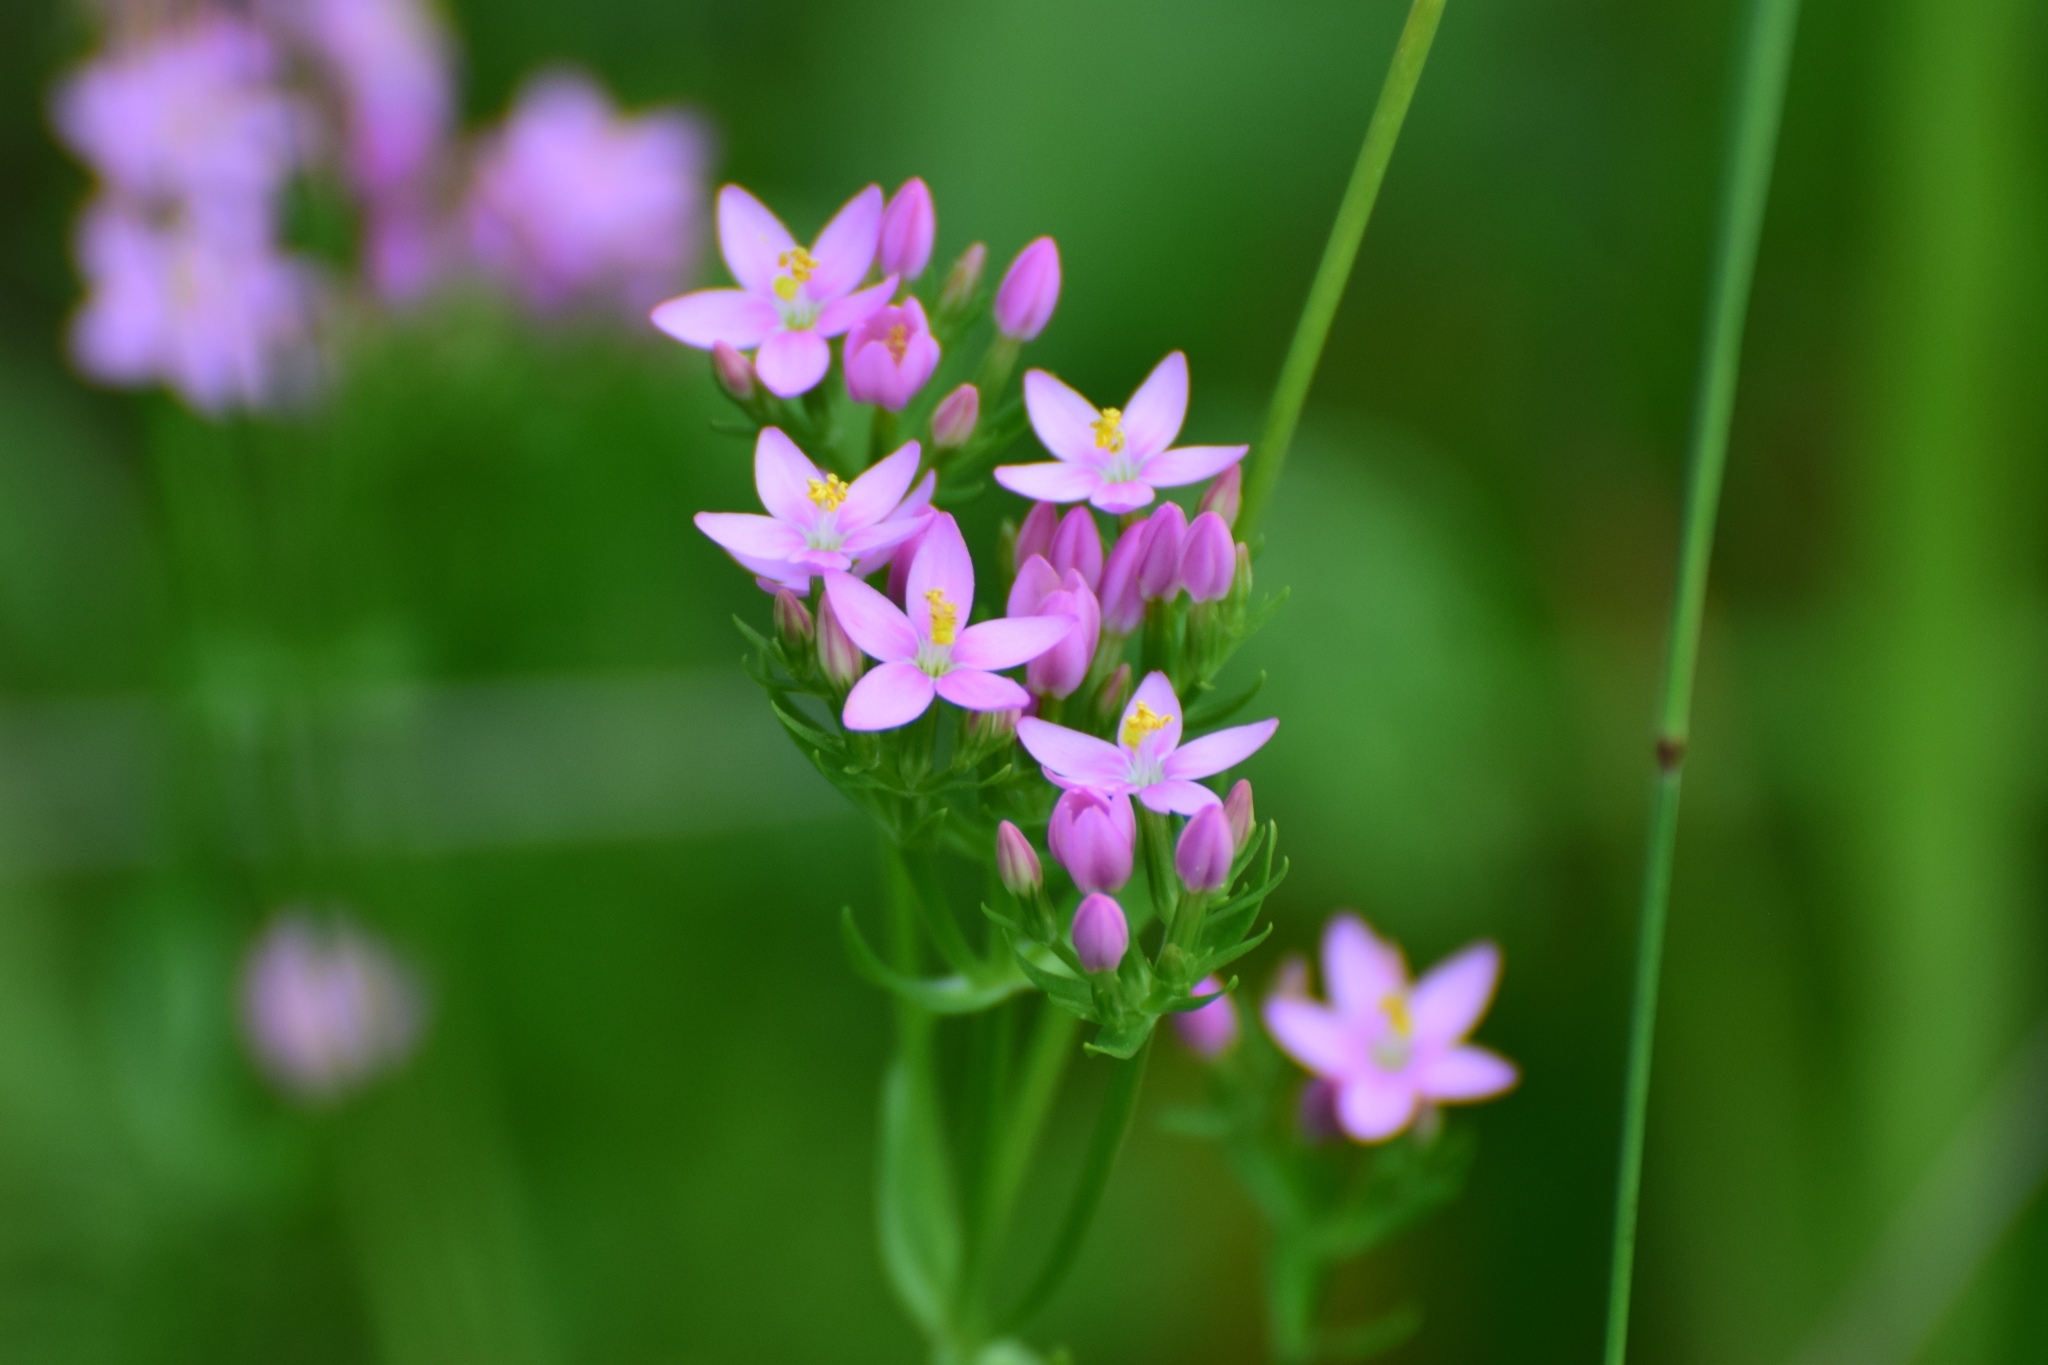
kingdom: Plantae
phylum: Tracheophyta
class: Magnoliopsida
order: Gentianales
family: Gentianaceae
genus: Centaurium
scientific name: Centaurium erythraea
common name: Common centaury
